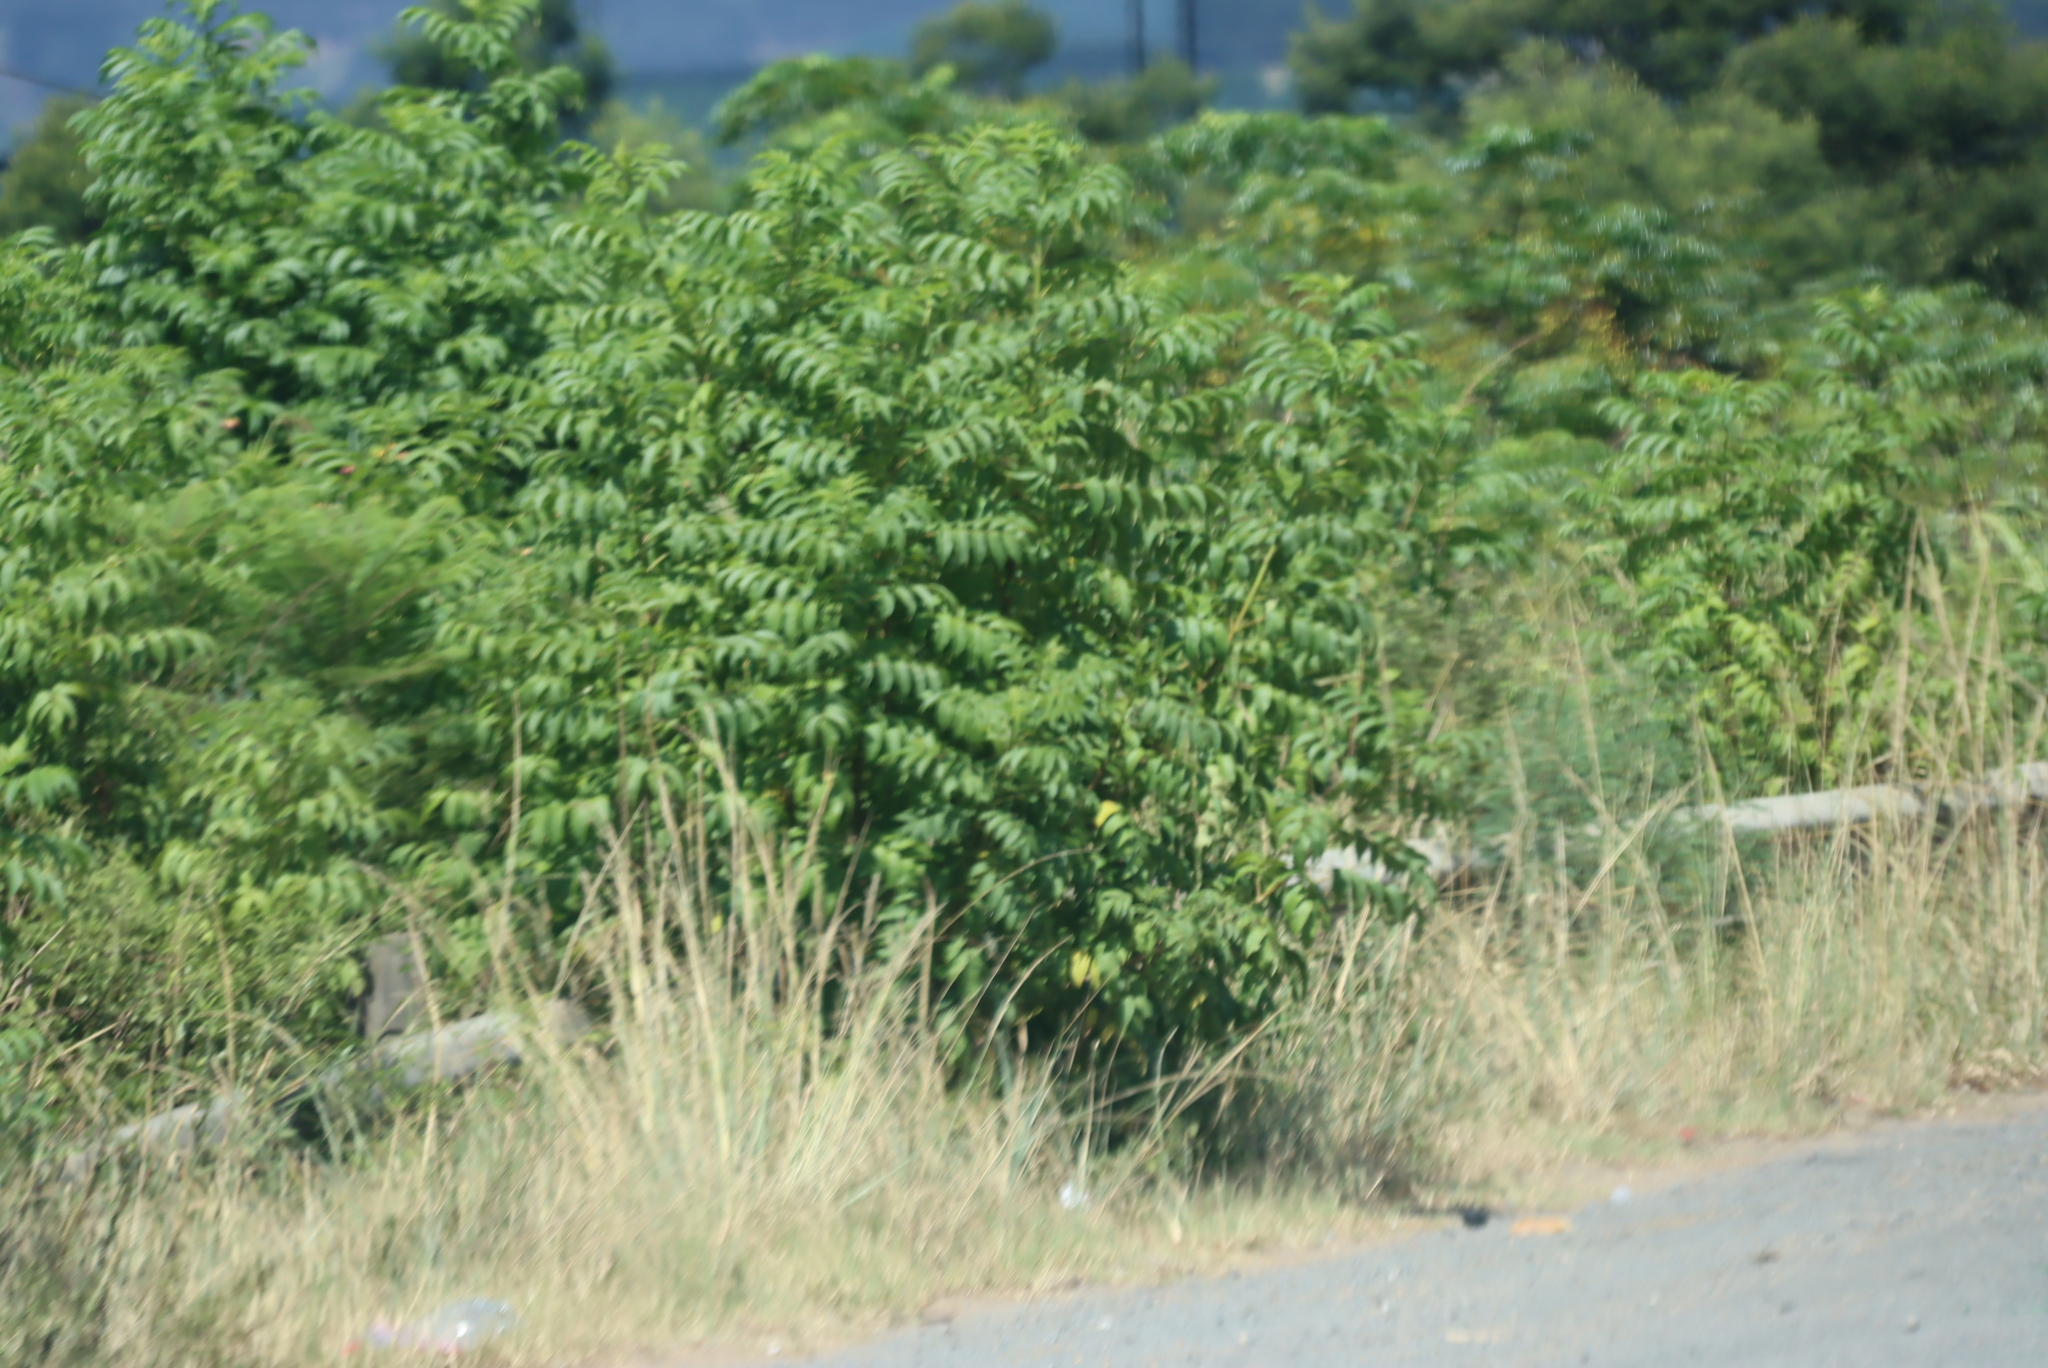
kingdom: Plantae
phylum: Tracheophyta
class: Magnoliopsida
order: Sapindales
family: Simaroubaceae
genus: Ailanthus
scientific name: Ailanthus altissima
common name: Tree-of-heaven
